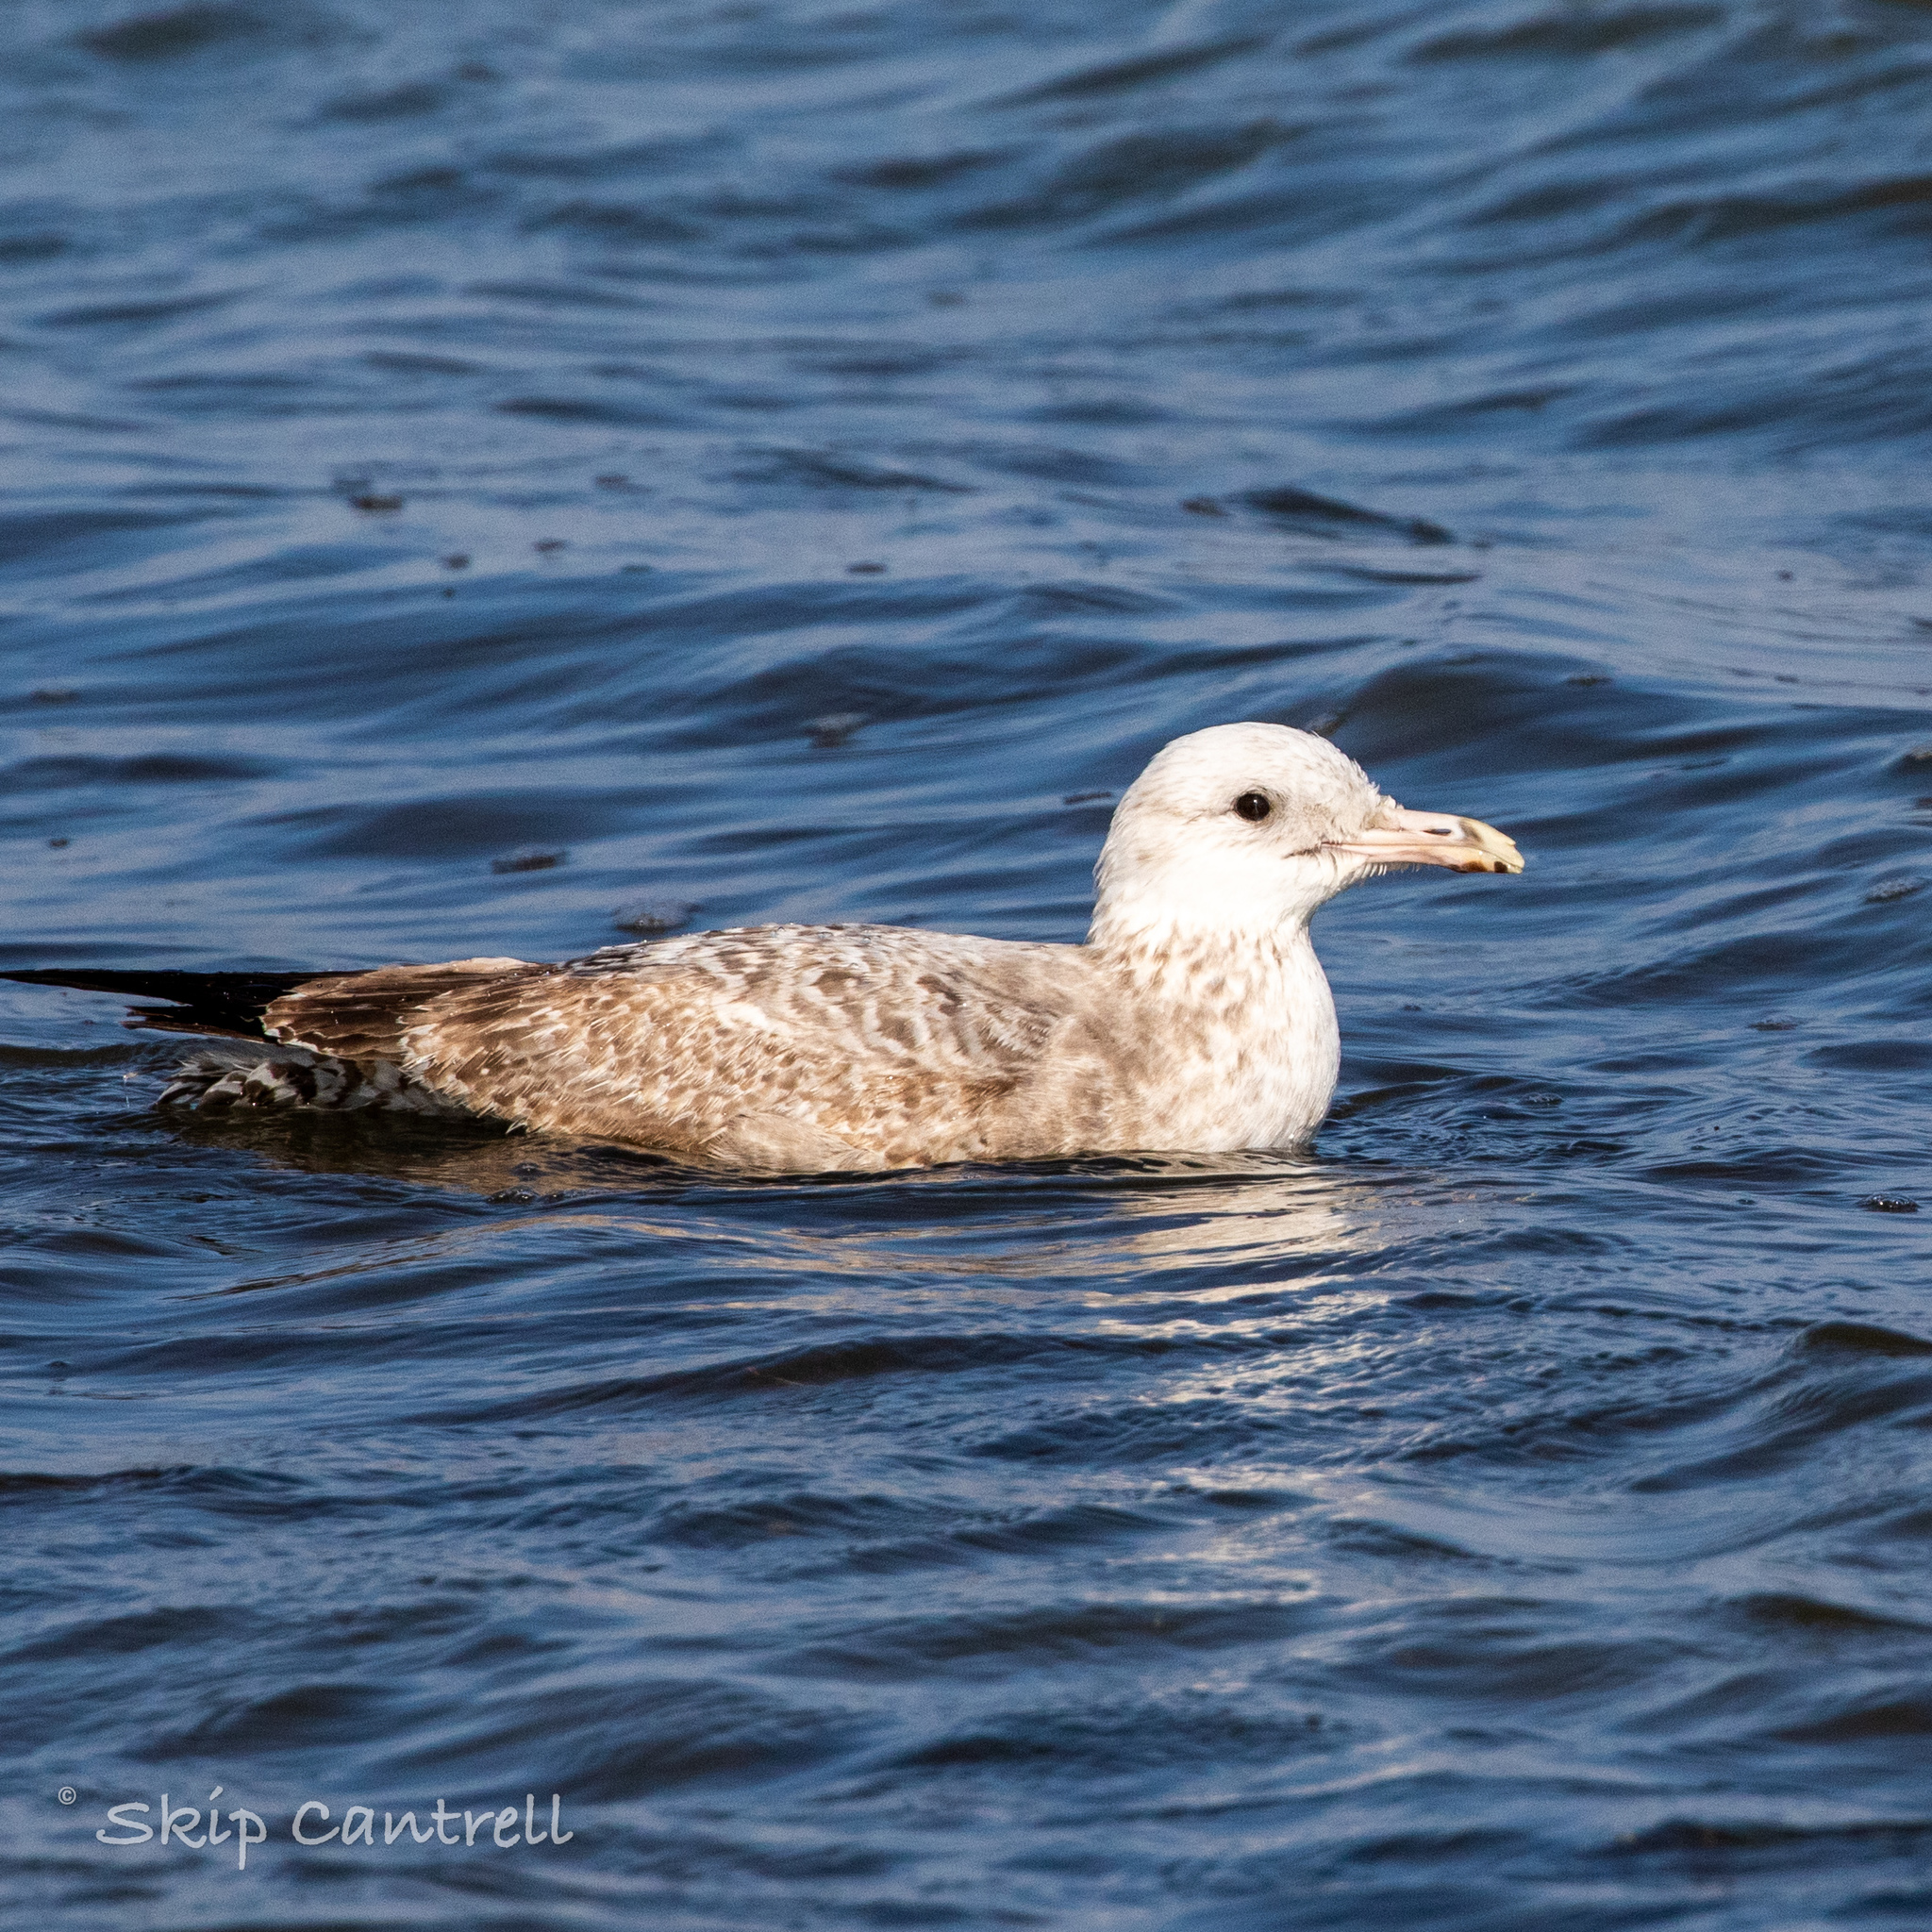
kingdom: Animalia
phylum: Chordata
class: Aves
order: Charadriiformes
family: Laridae
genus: Larus
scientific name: Larus argentatus
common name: Herring gull
